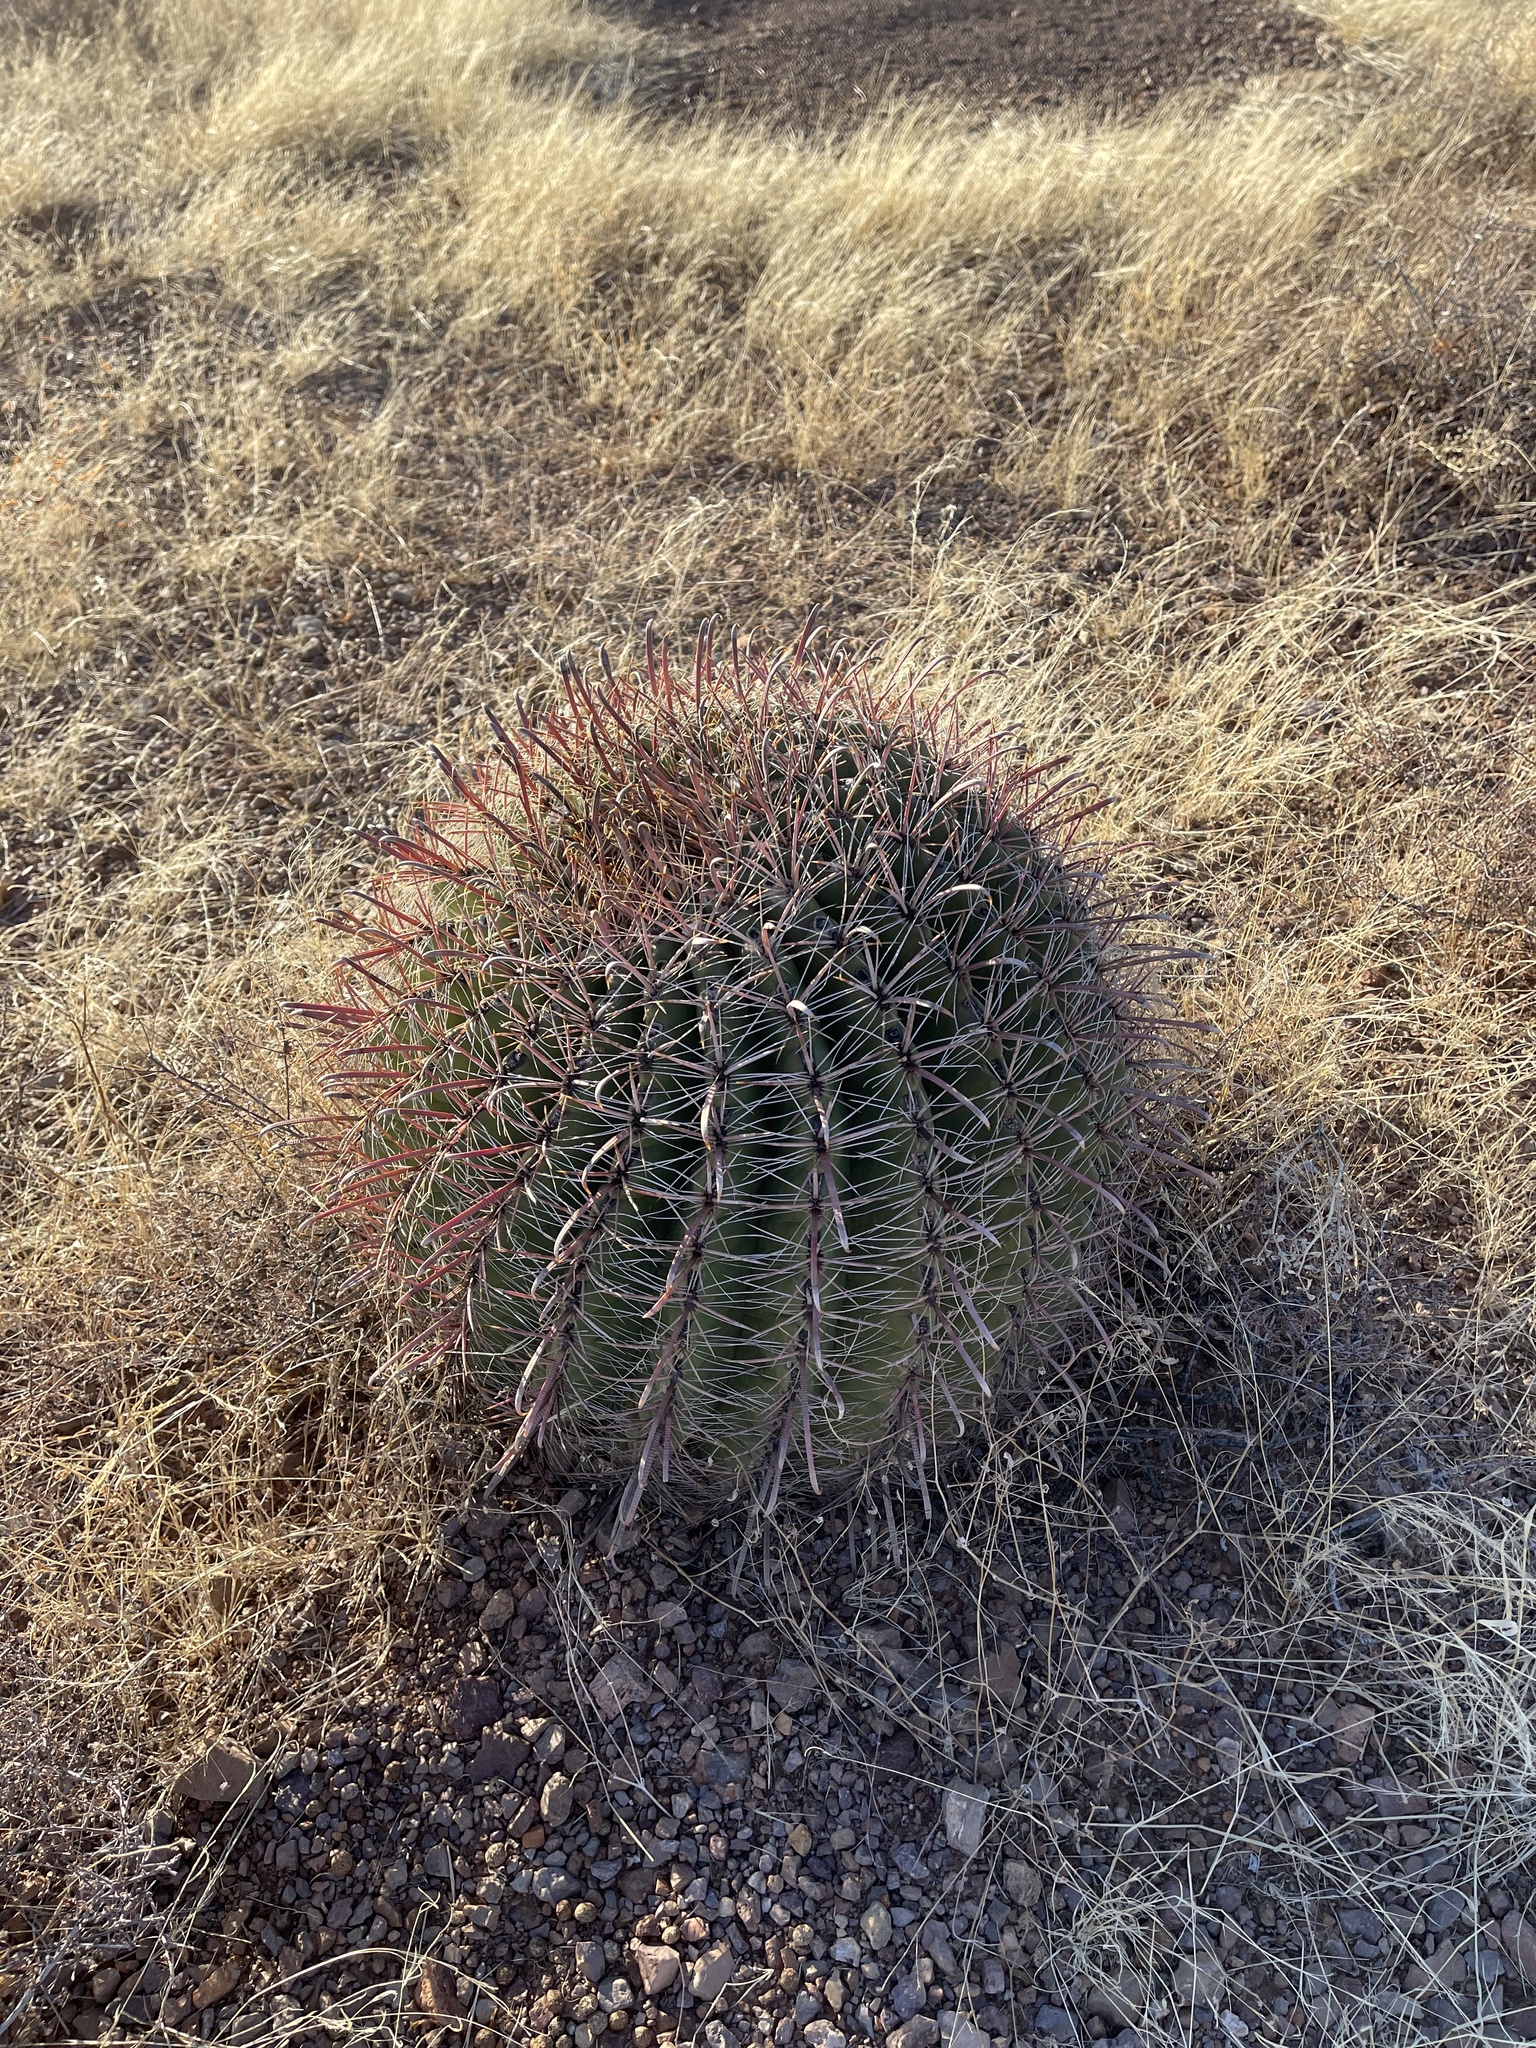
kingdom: Plantae
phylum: Tracheophyta
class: Magnoliopsida
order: Caryophyllales
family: Cactaceae
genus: Ferocactus
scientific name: Ferocactus wislizeni
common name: Candy barrel cactus
